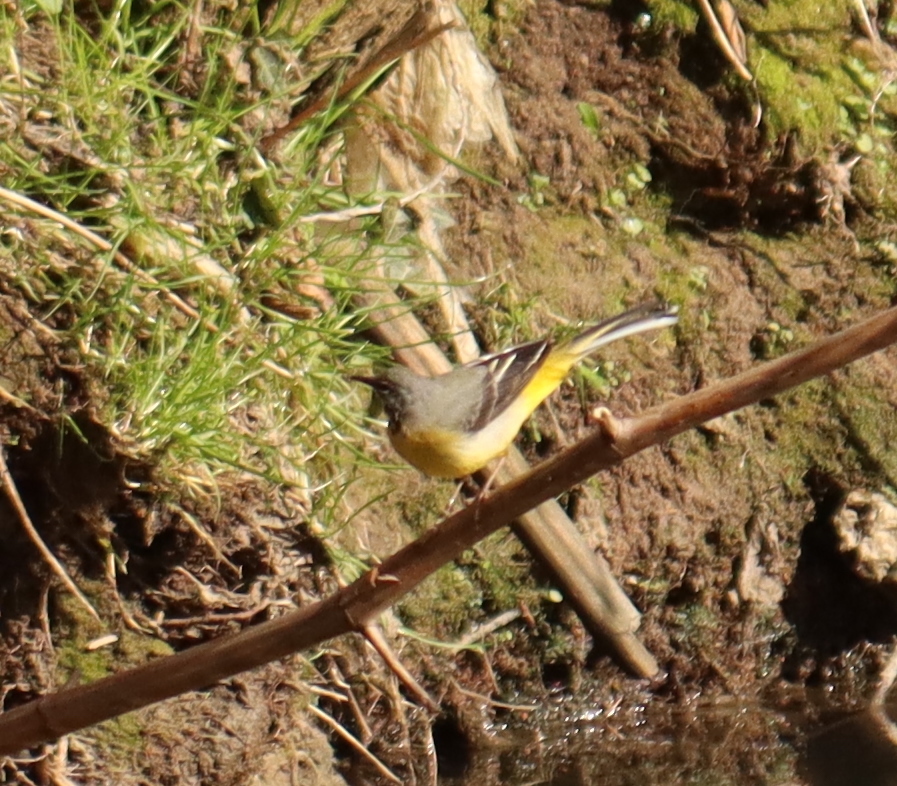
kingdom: Animalia
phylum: Chordata
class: Aves
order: Passeriformes
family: Motacillidae
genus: Motacilla
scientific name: Motacilla cinerea
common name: Grey wagtail
